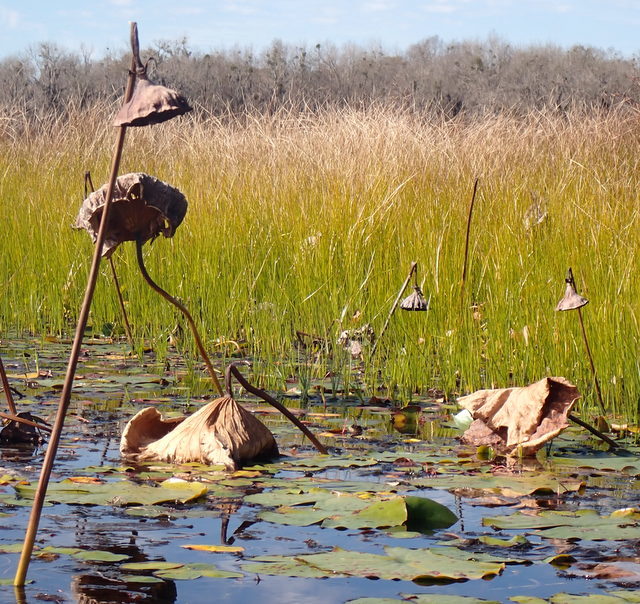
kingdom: Plantae
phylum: Tracheophyta
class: Magnoliopsida
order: Proteales
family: Nelumbonaceae
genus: Nelumbo
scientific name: Nelumbo lutea
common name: American lotus
